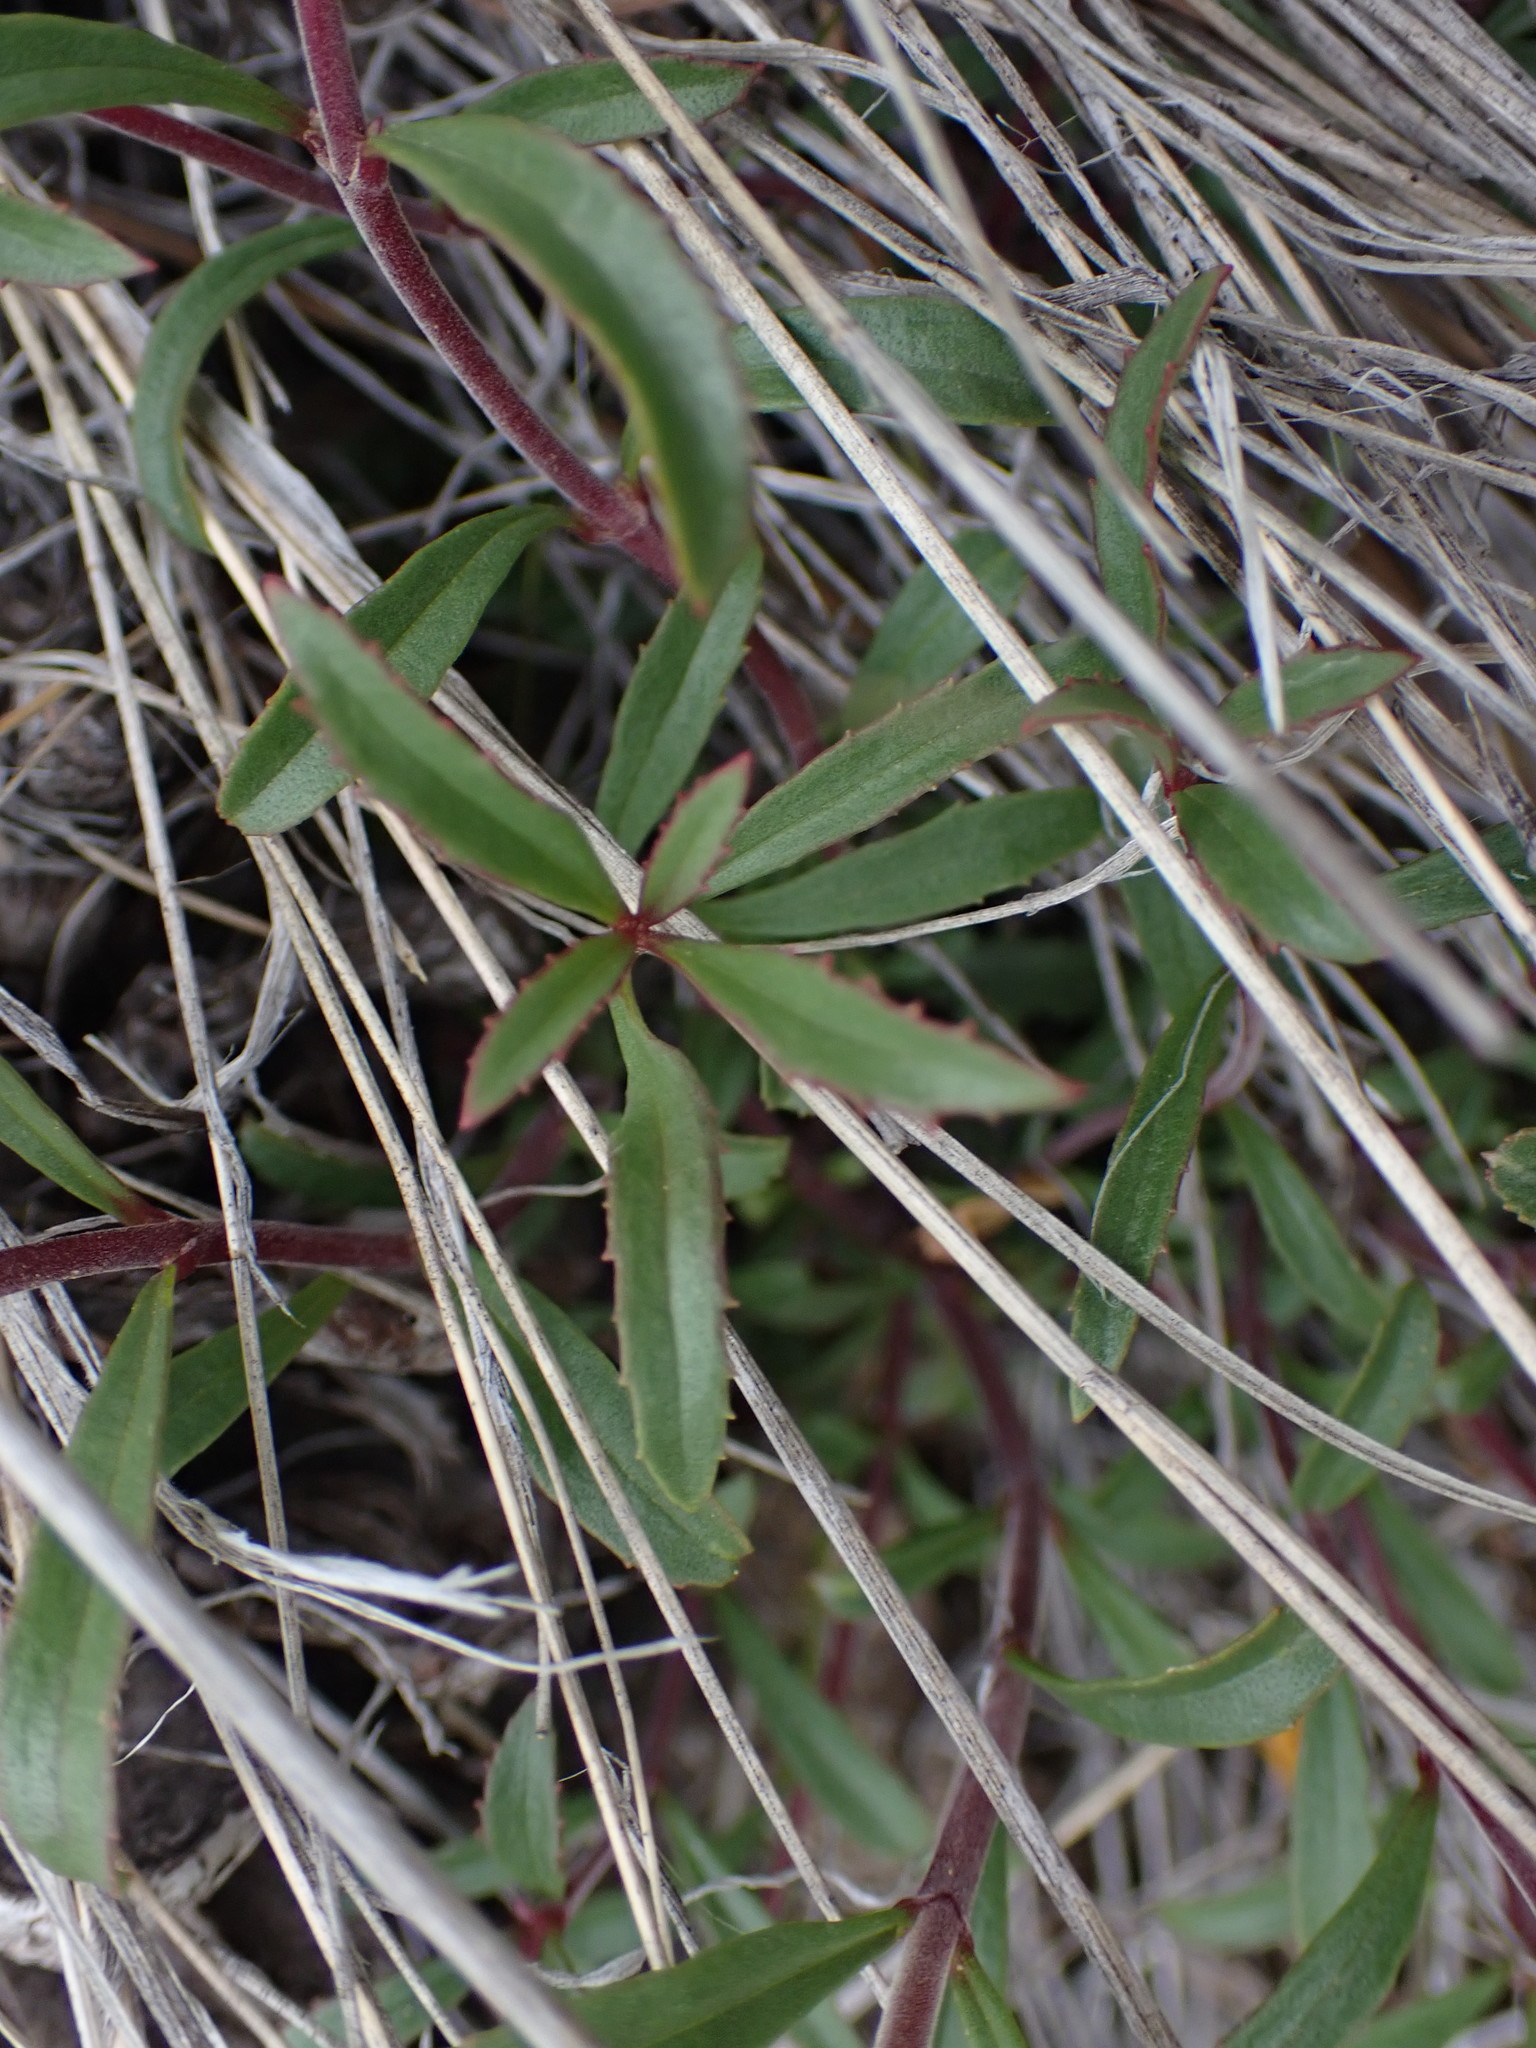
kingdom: Plantae
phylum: Tracheophyta
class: Magnoliopsida
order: Lamiales
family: Plantaginaceae
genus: Penstemon
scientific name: Penstemon fruticosus
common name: Bush penstemon
